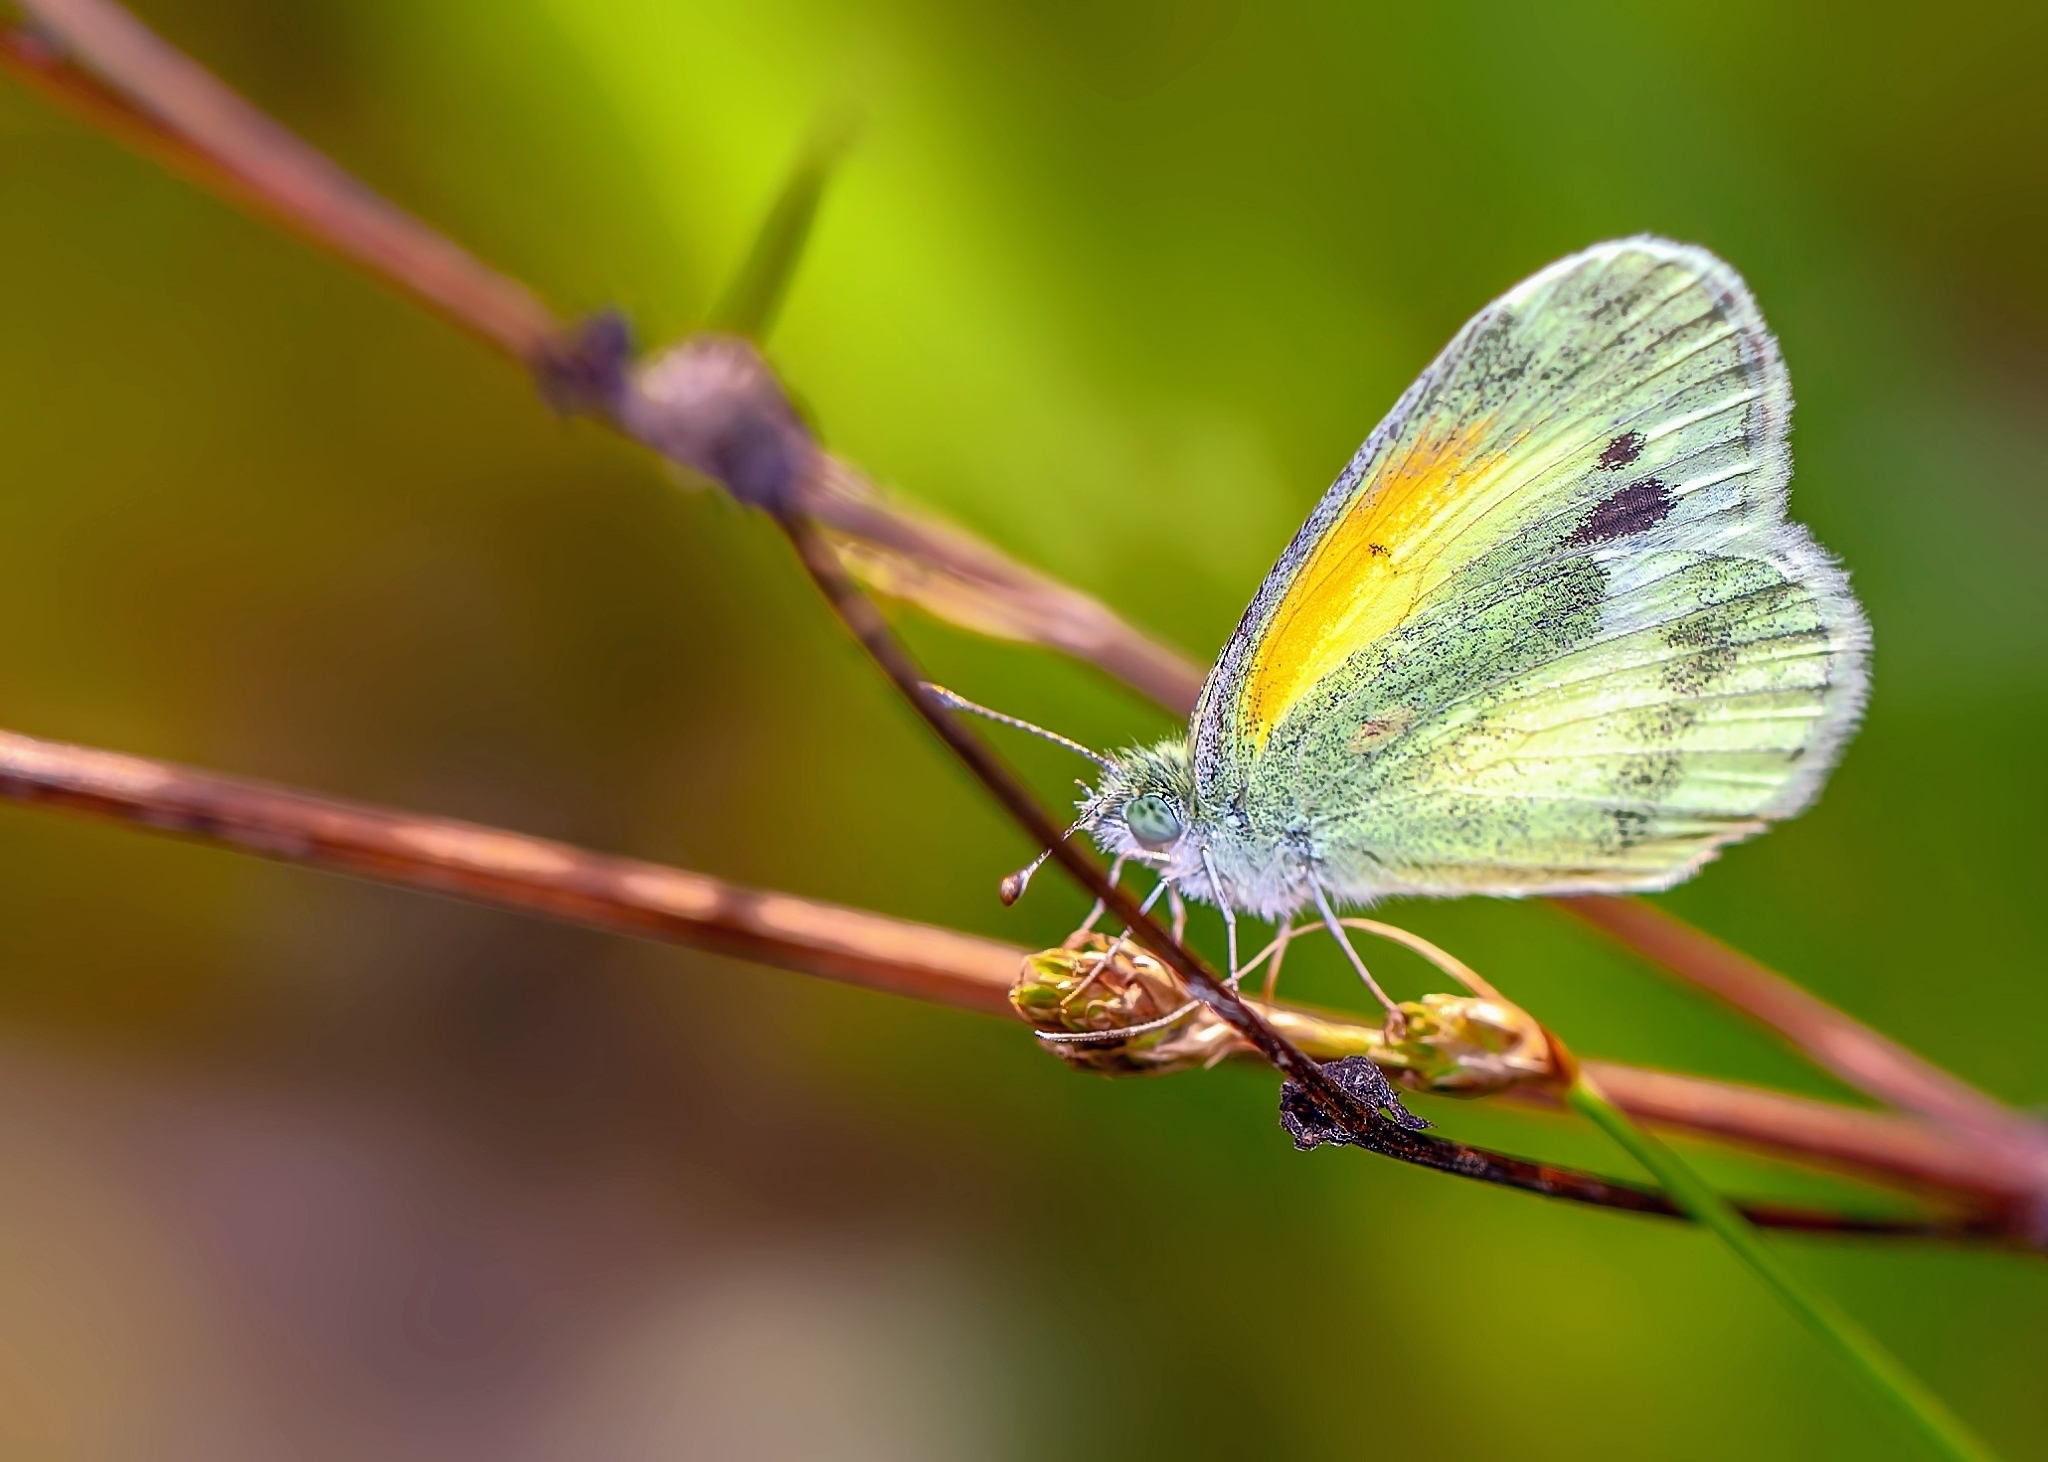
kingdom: Animalia
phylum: Arthropoda
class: Insecta
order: Lepidoptera
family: Pieridae
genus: Nathalis
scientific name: Nathalis iole
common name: Dainty sulphur
